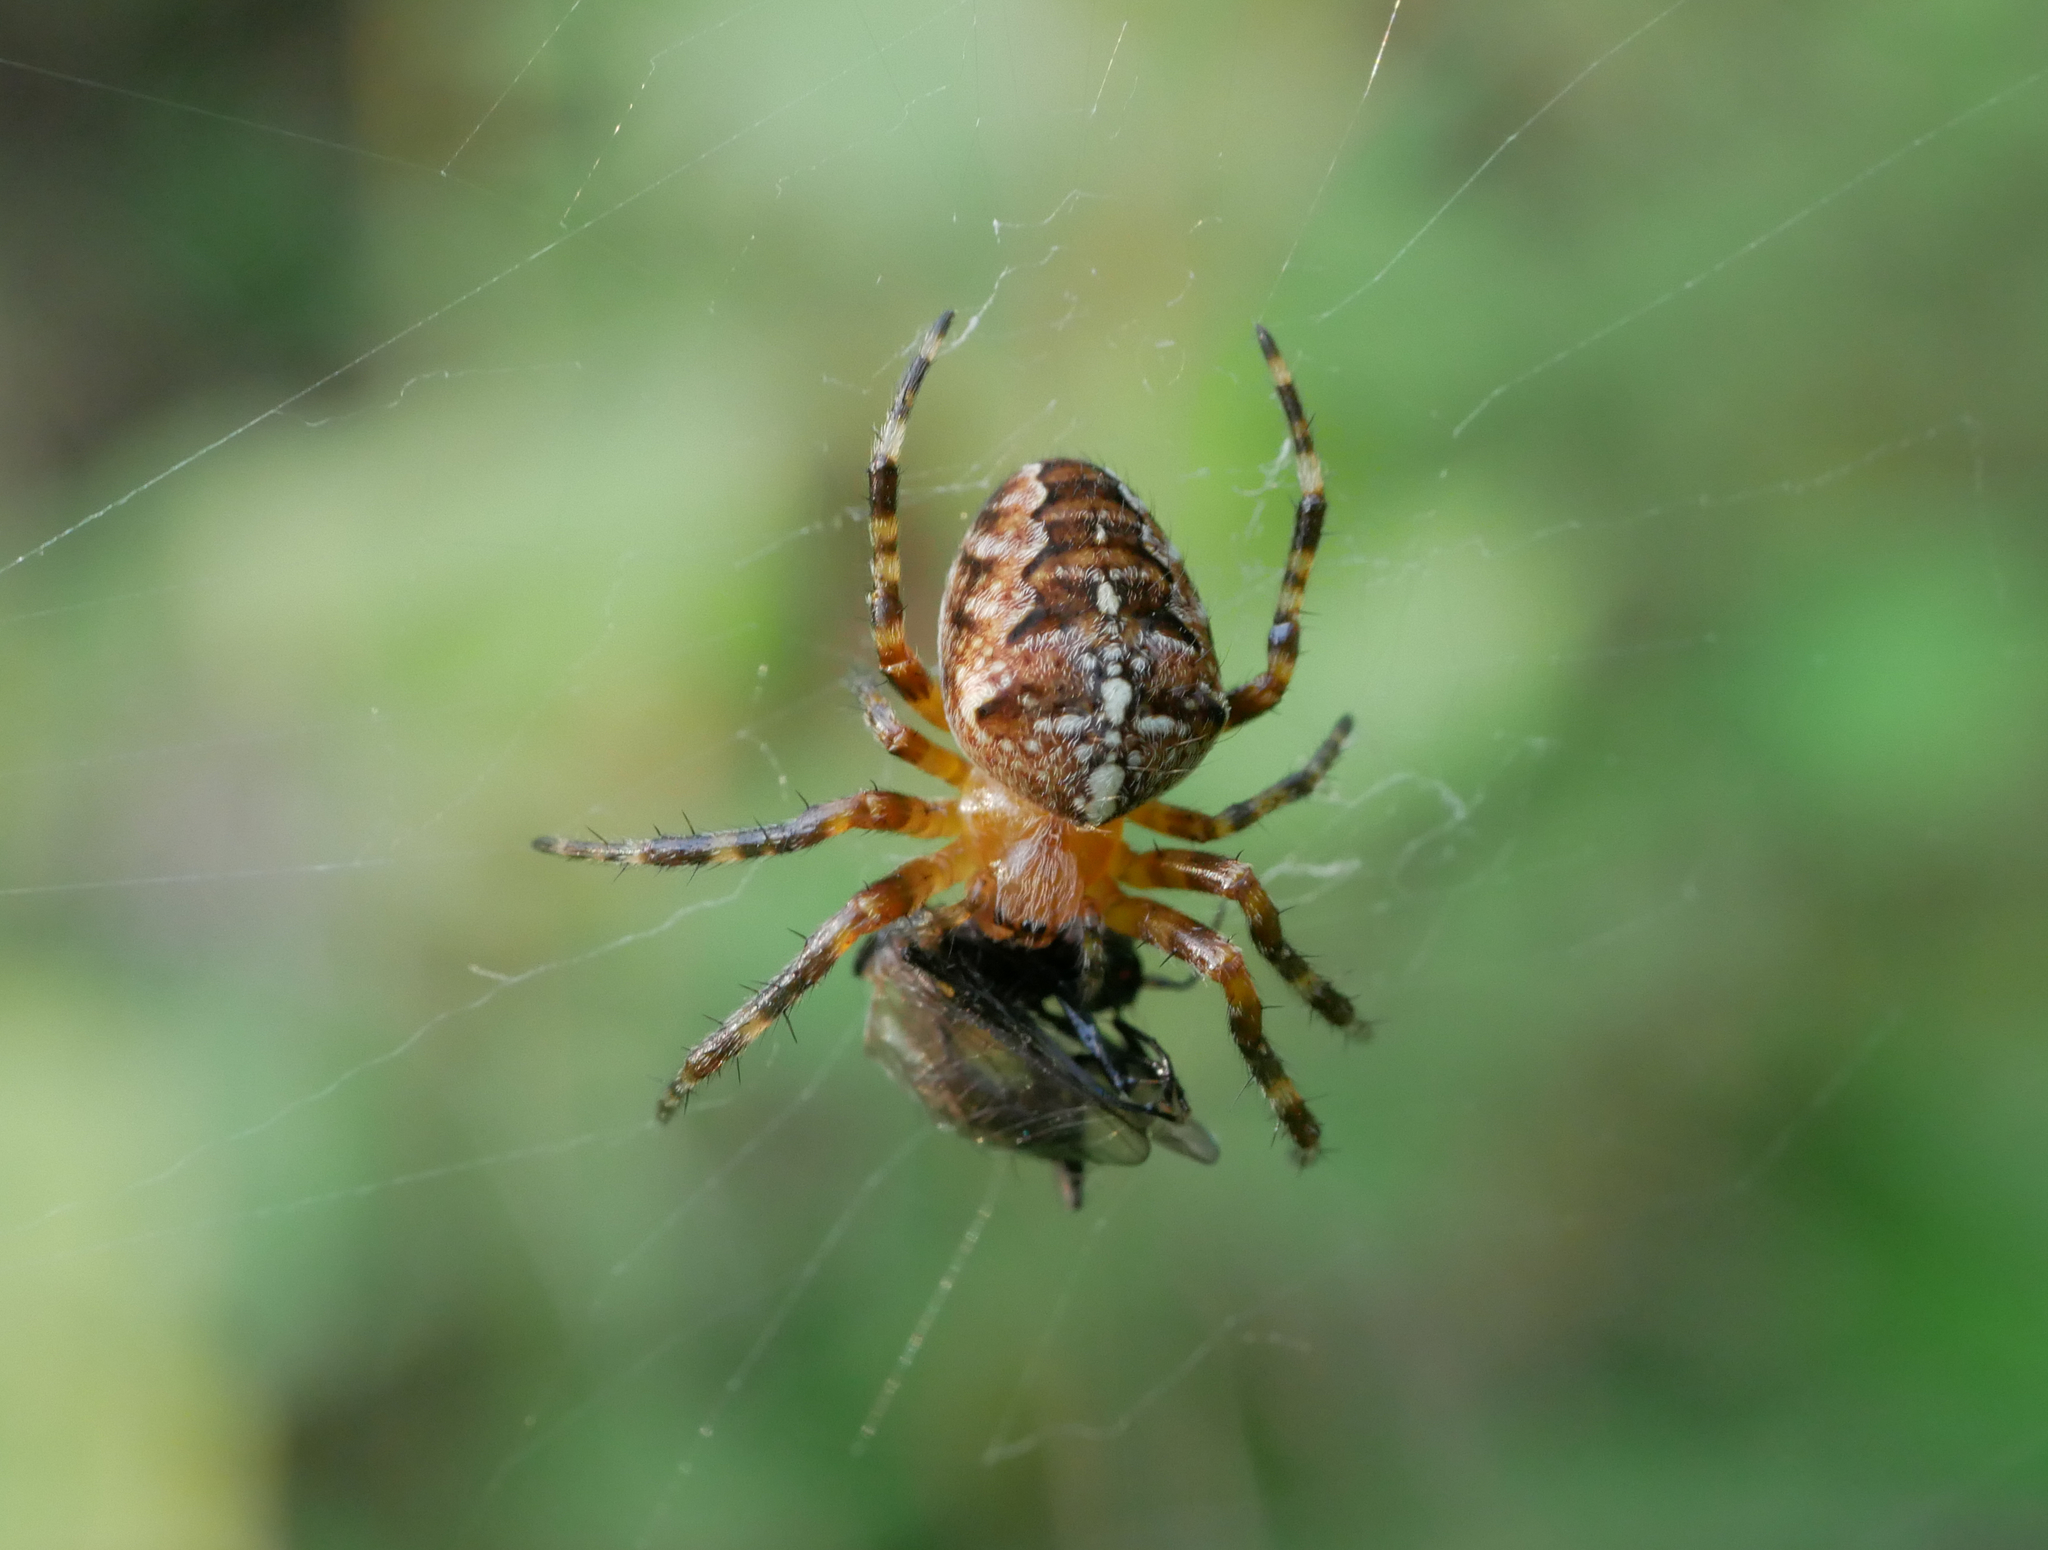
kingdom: Animalia
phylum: Arthropoda
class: Arachnida
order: Araneae
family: Araneidae
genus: Araneus
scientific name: Araneus diadematus
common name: Cross orbweaver
